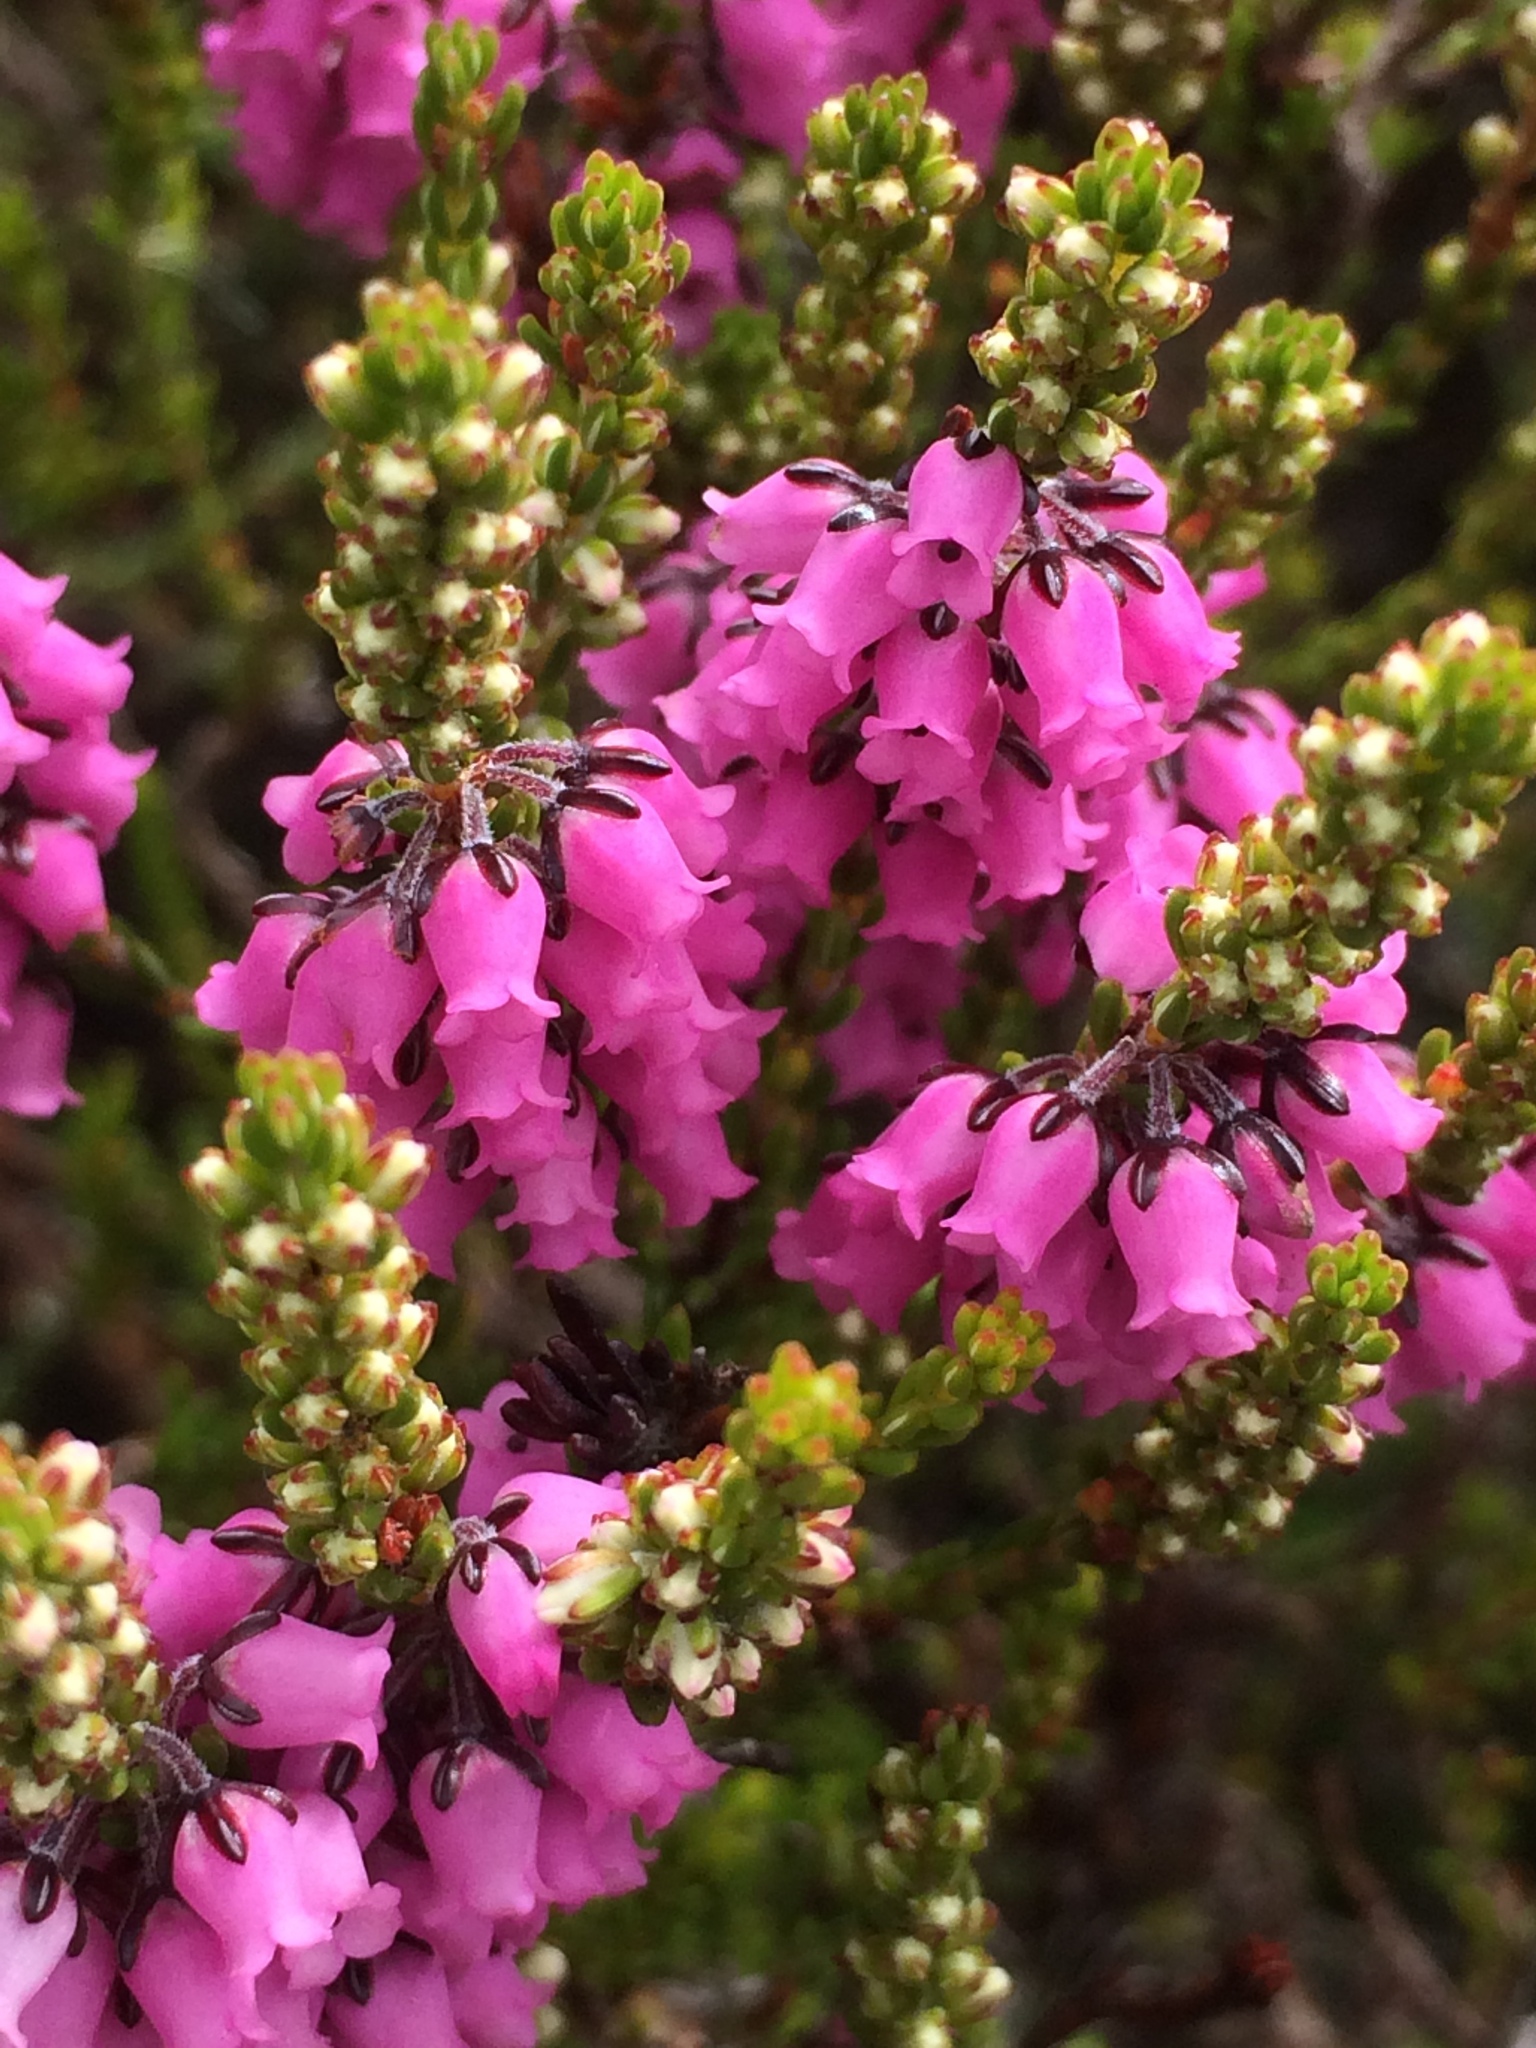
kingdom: Plantae
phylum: Tracheophyta
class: Magnoliopsida
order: Ericales
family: Ericaceae
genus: Erica
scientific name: Erica pulchella
